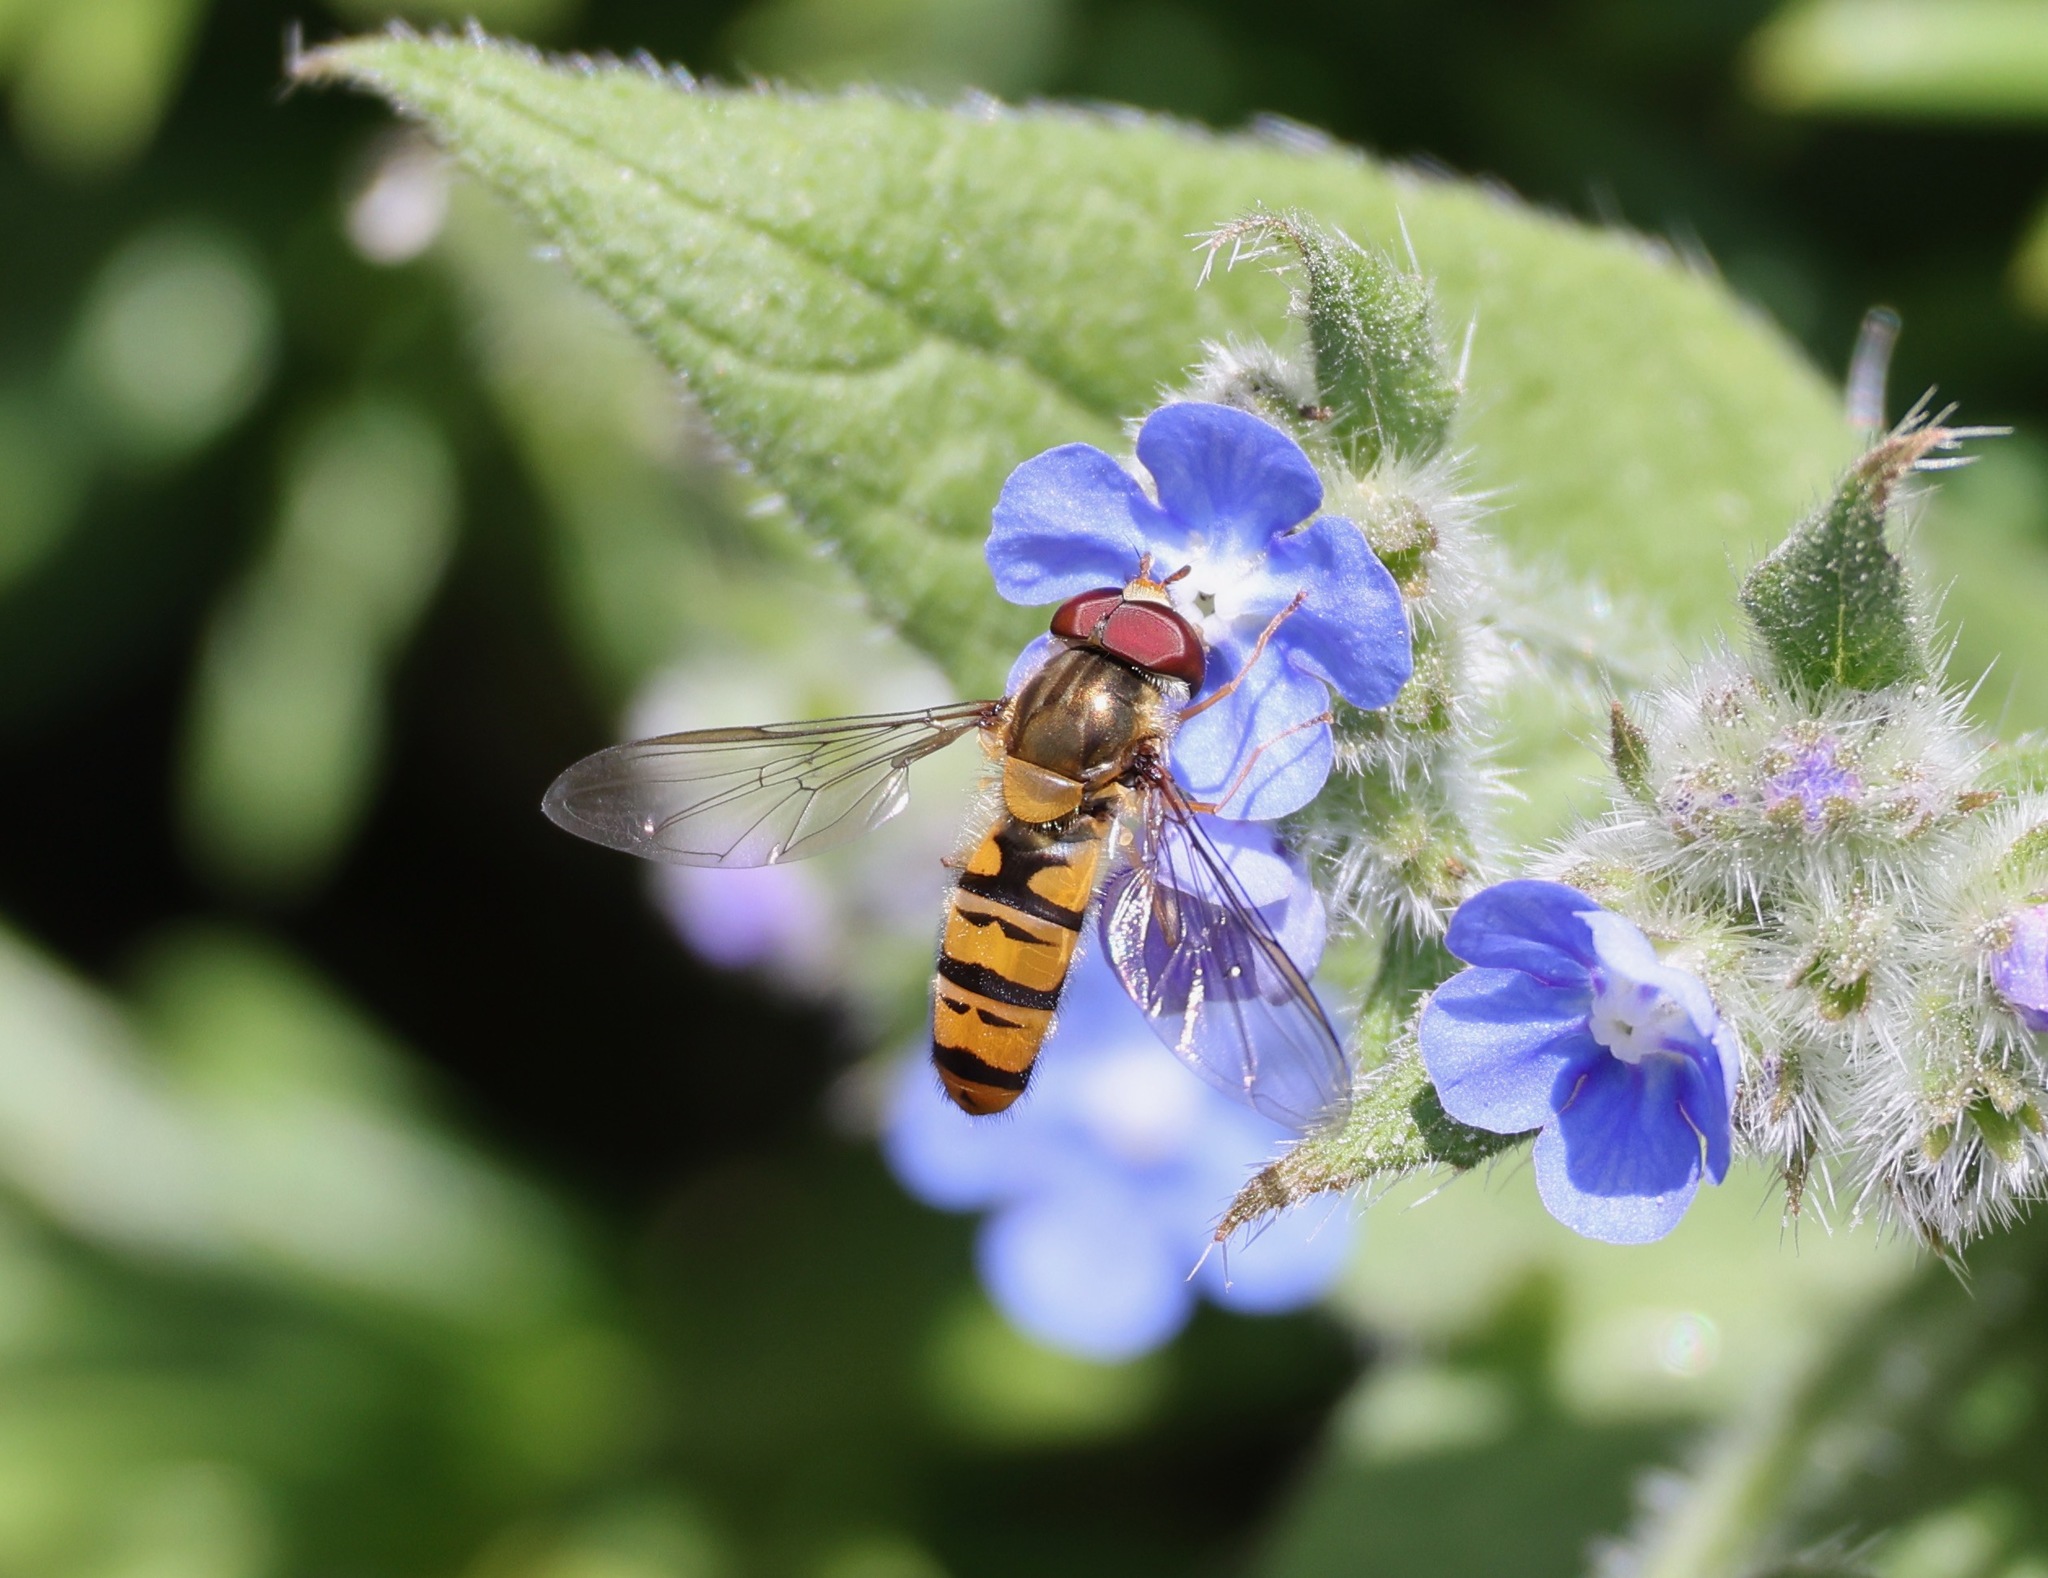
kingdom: Animalia
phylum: Arthropoda
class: Insecta
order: Diptera
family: Syrphidae
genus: Episyrphus
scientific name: Episyrphus balteatus
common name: Marmalade hoverfly
